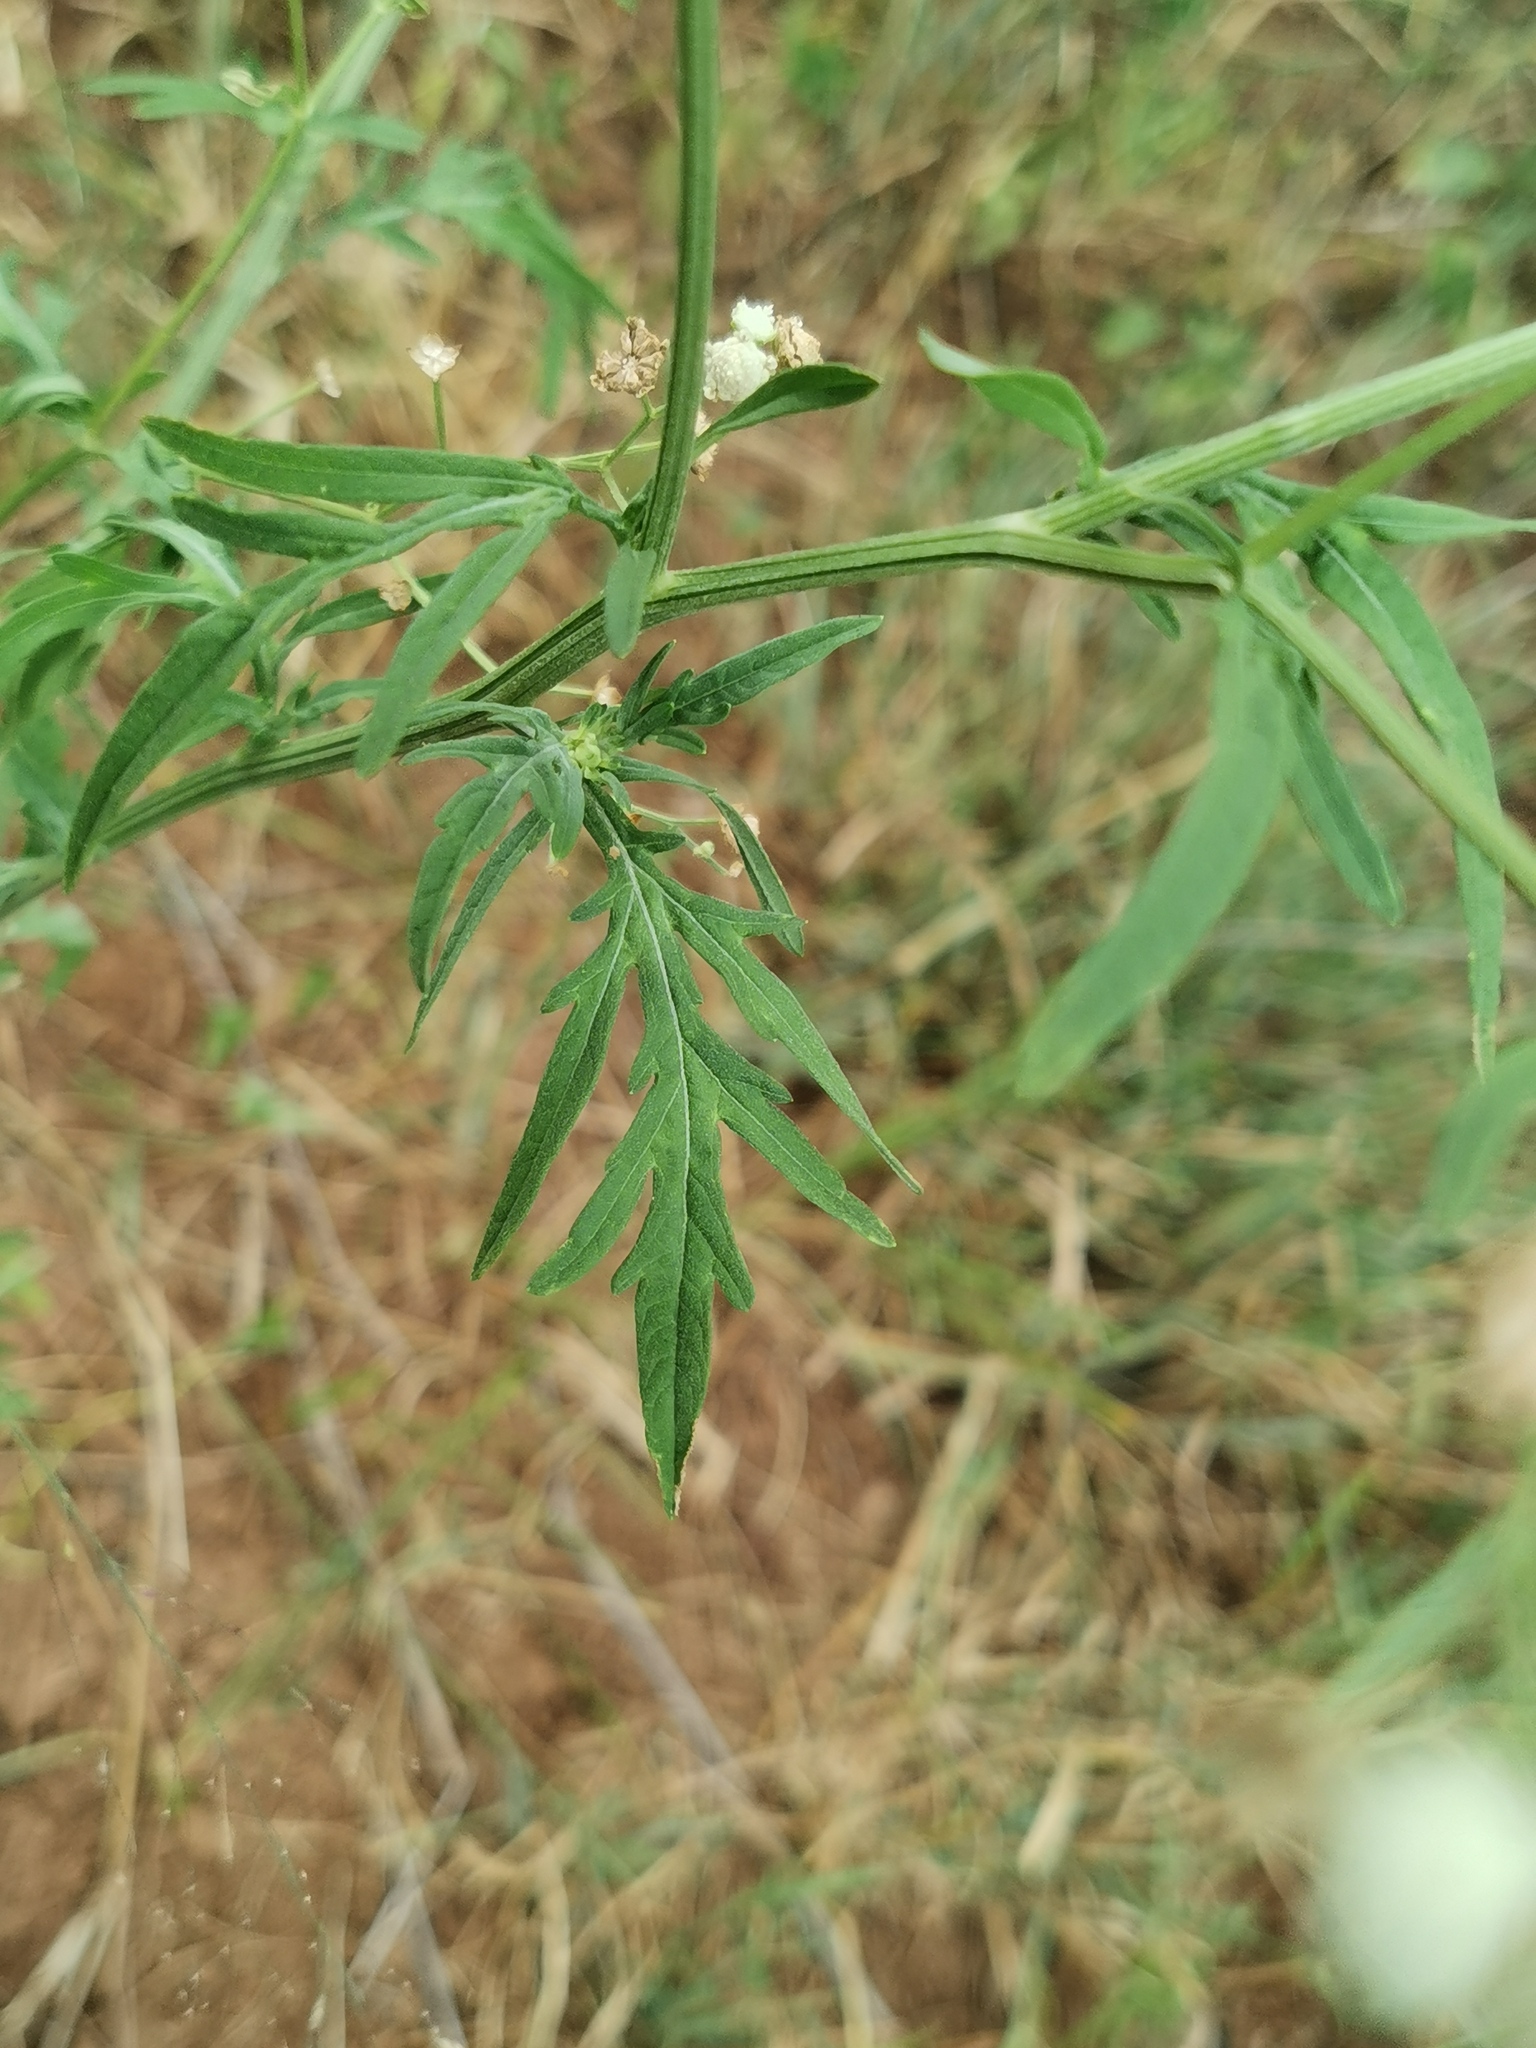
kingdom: Plantae
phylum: Tracheophyta
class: Magnoliopsida
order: Asterales
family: Asteraceae
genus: Parthenium
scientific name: Parthenium hysterophorus
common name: Santa maria feverfew
